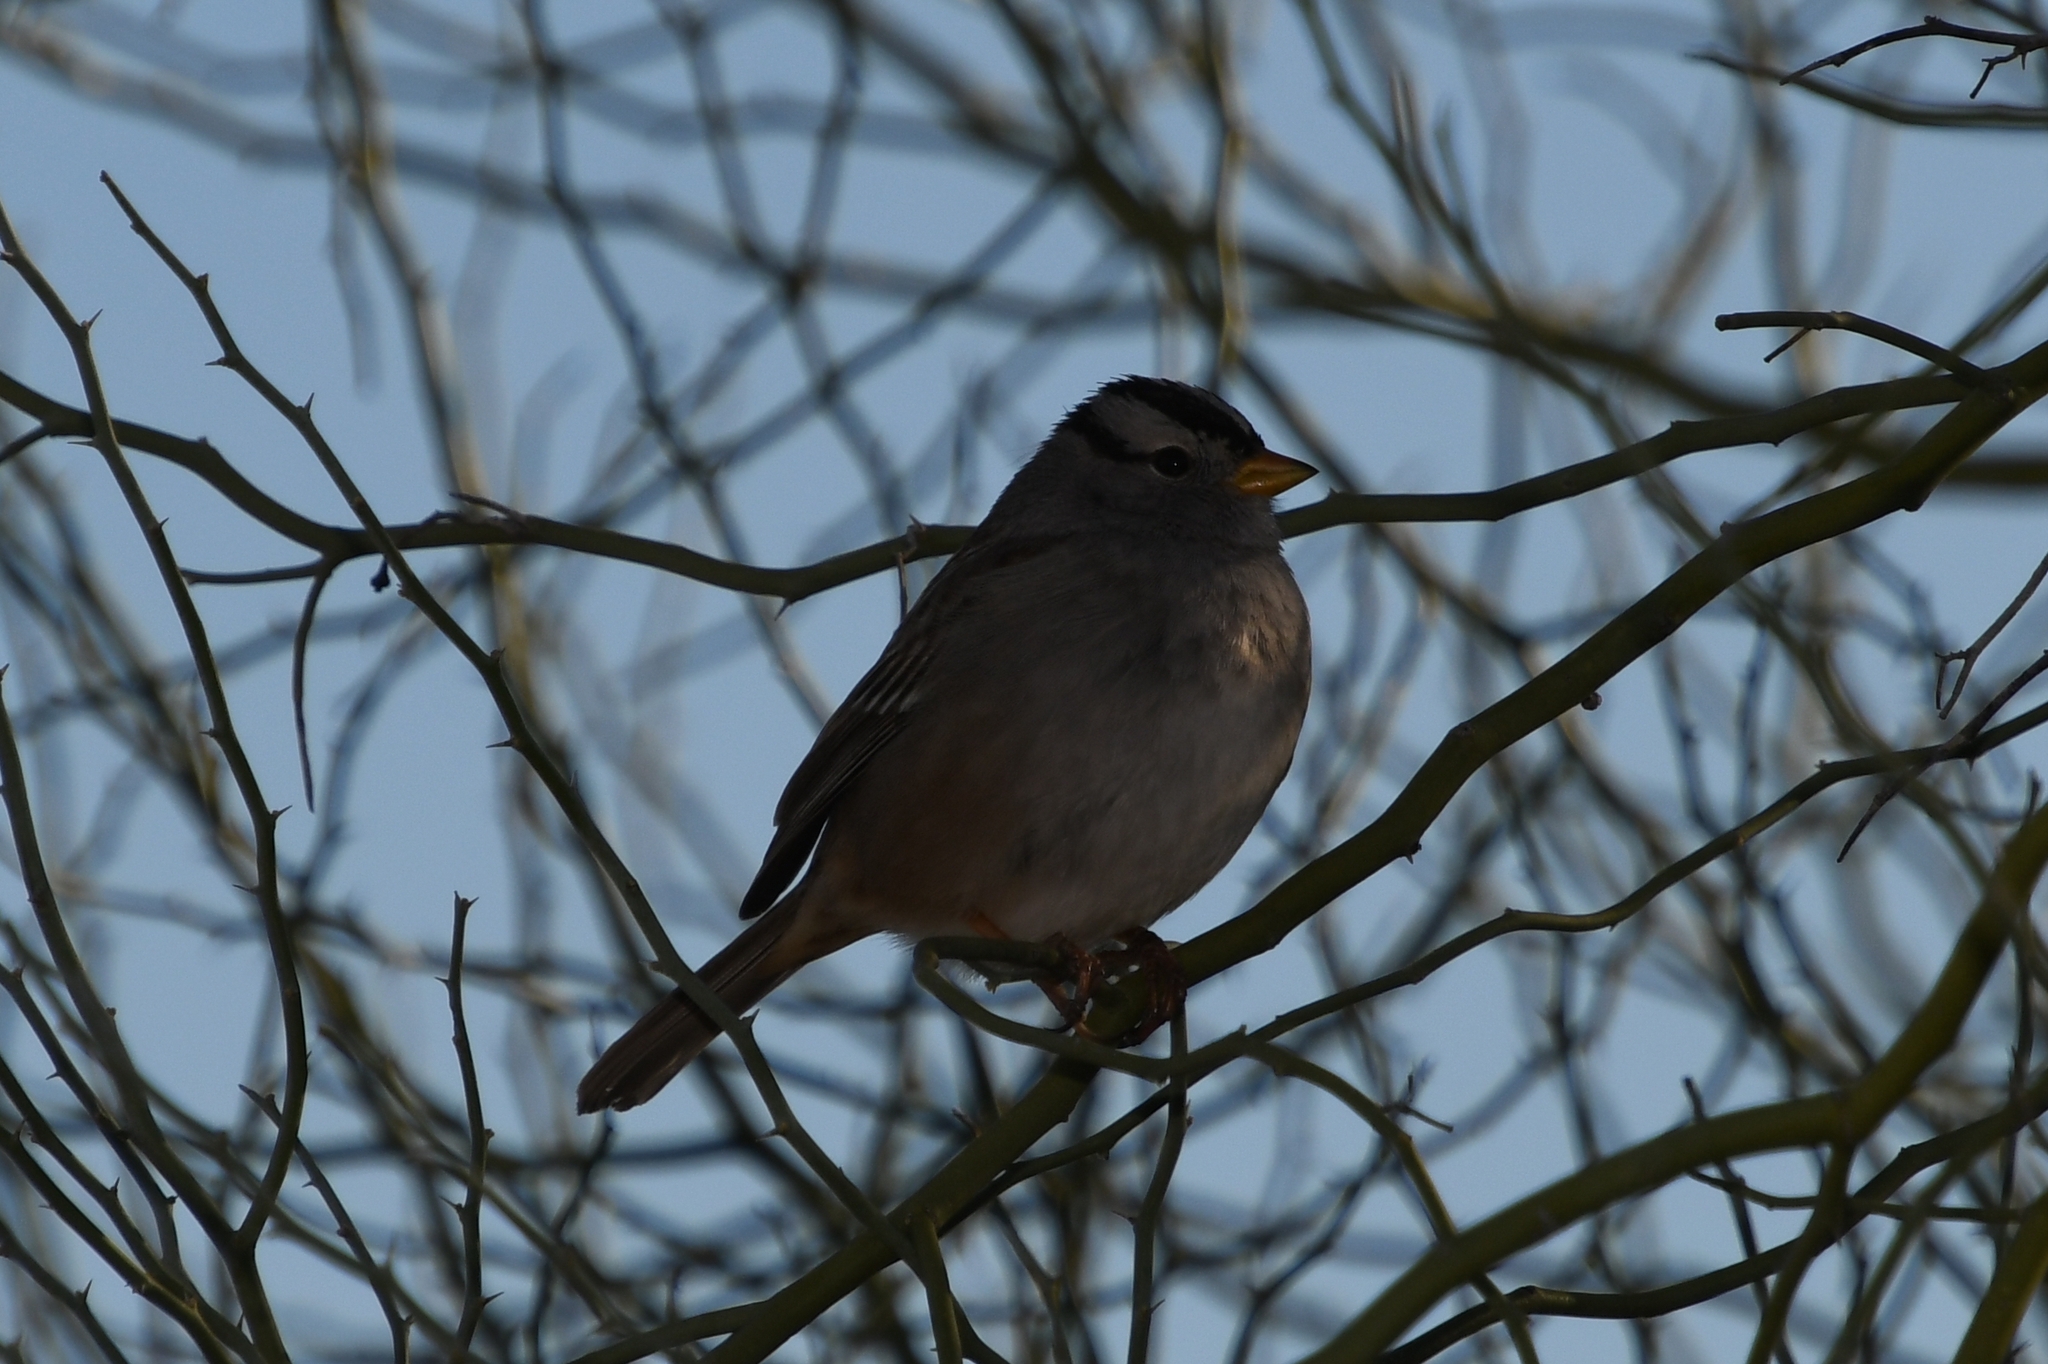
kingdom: Animalia
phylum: Chordata
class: Aves
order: Passeriformes
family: Passerellidae
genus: Zonotrichia
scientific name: Zonotrichia leucophrys
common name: White-crowned sparrow
